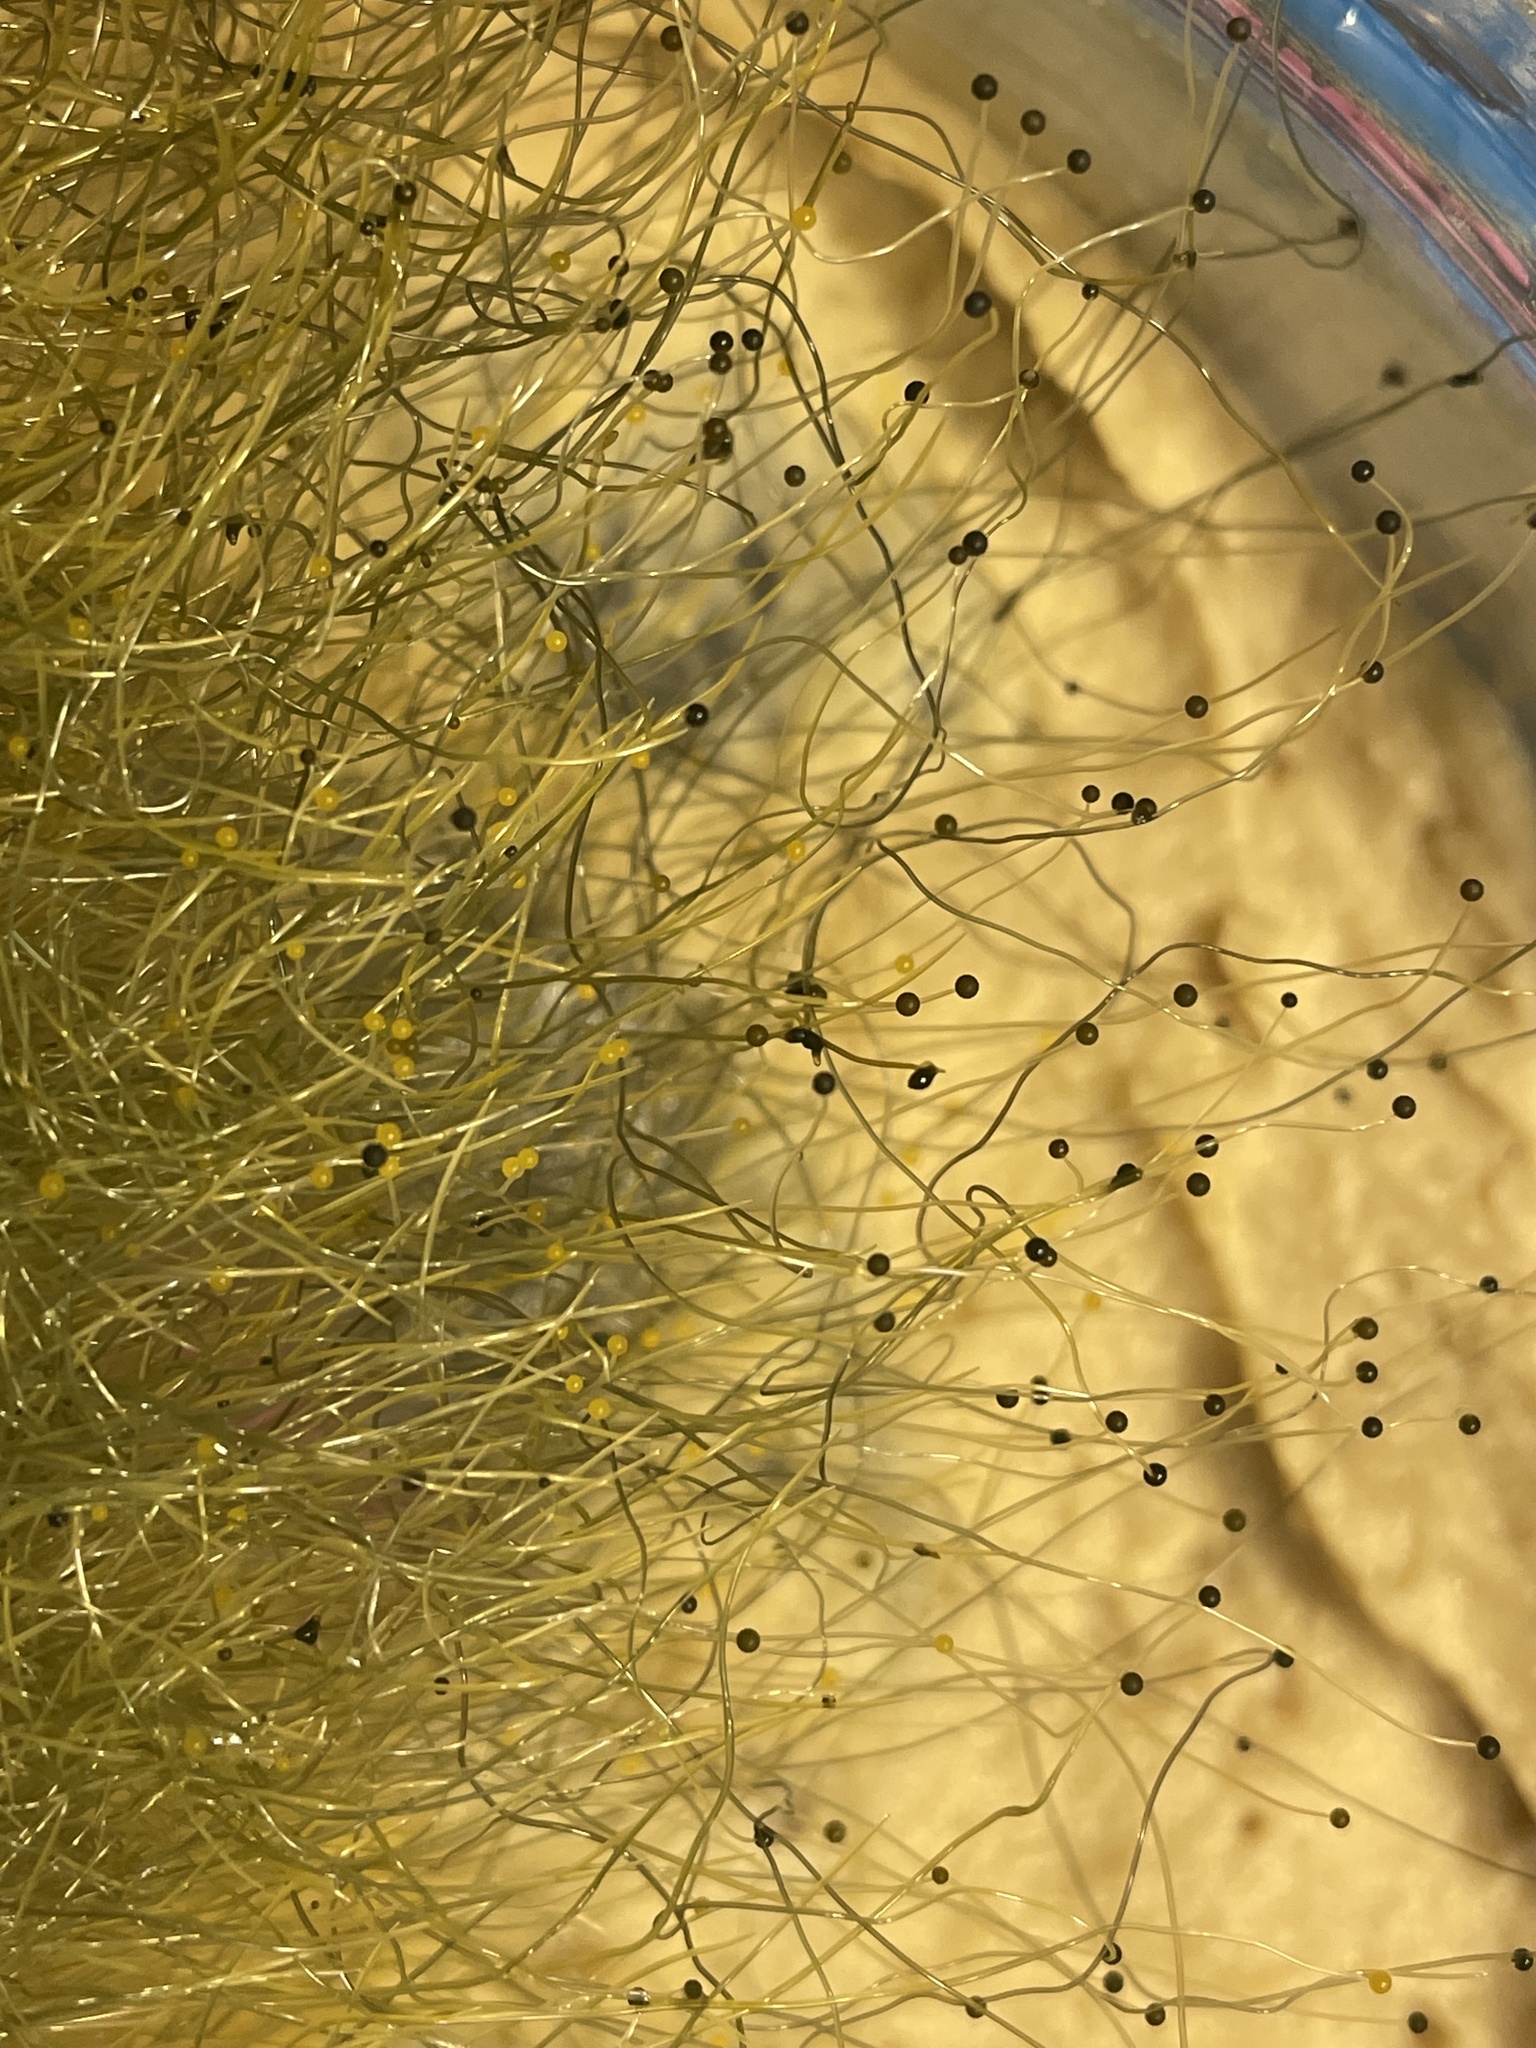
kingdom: Fungi
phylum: Mucoromycota
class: Mucoromycetes
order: Mucorales
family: Phycomycetaceae
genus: Phycomyces
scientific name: Phycomyces
